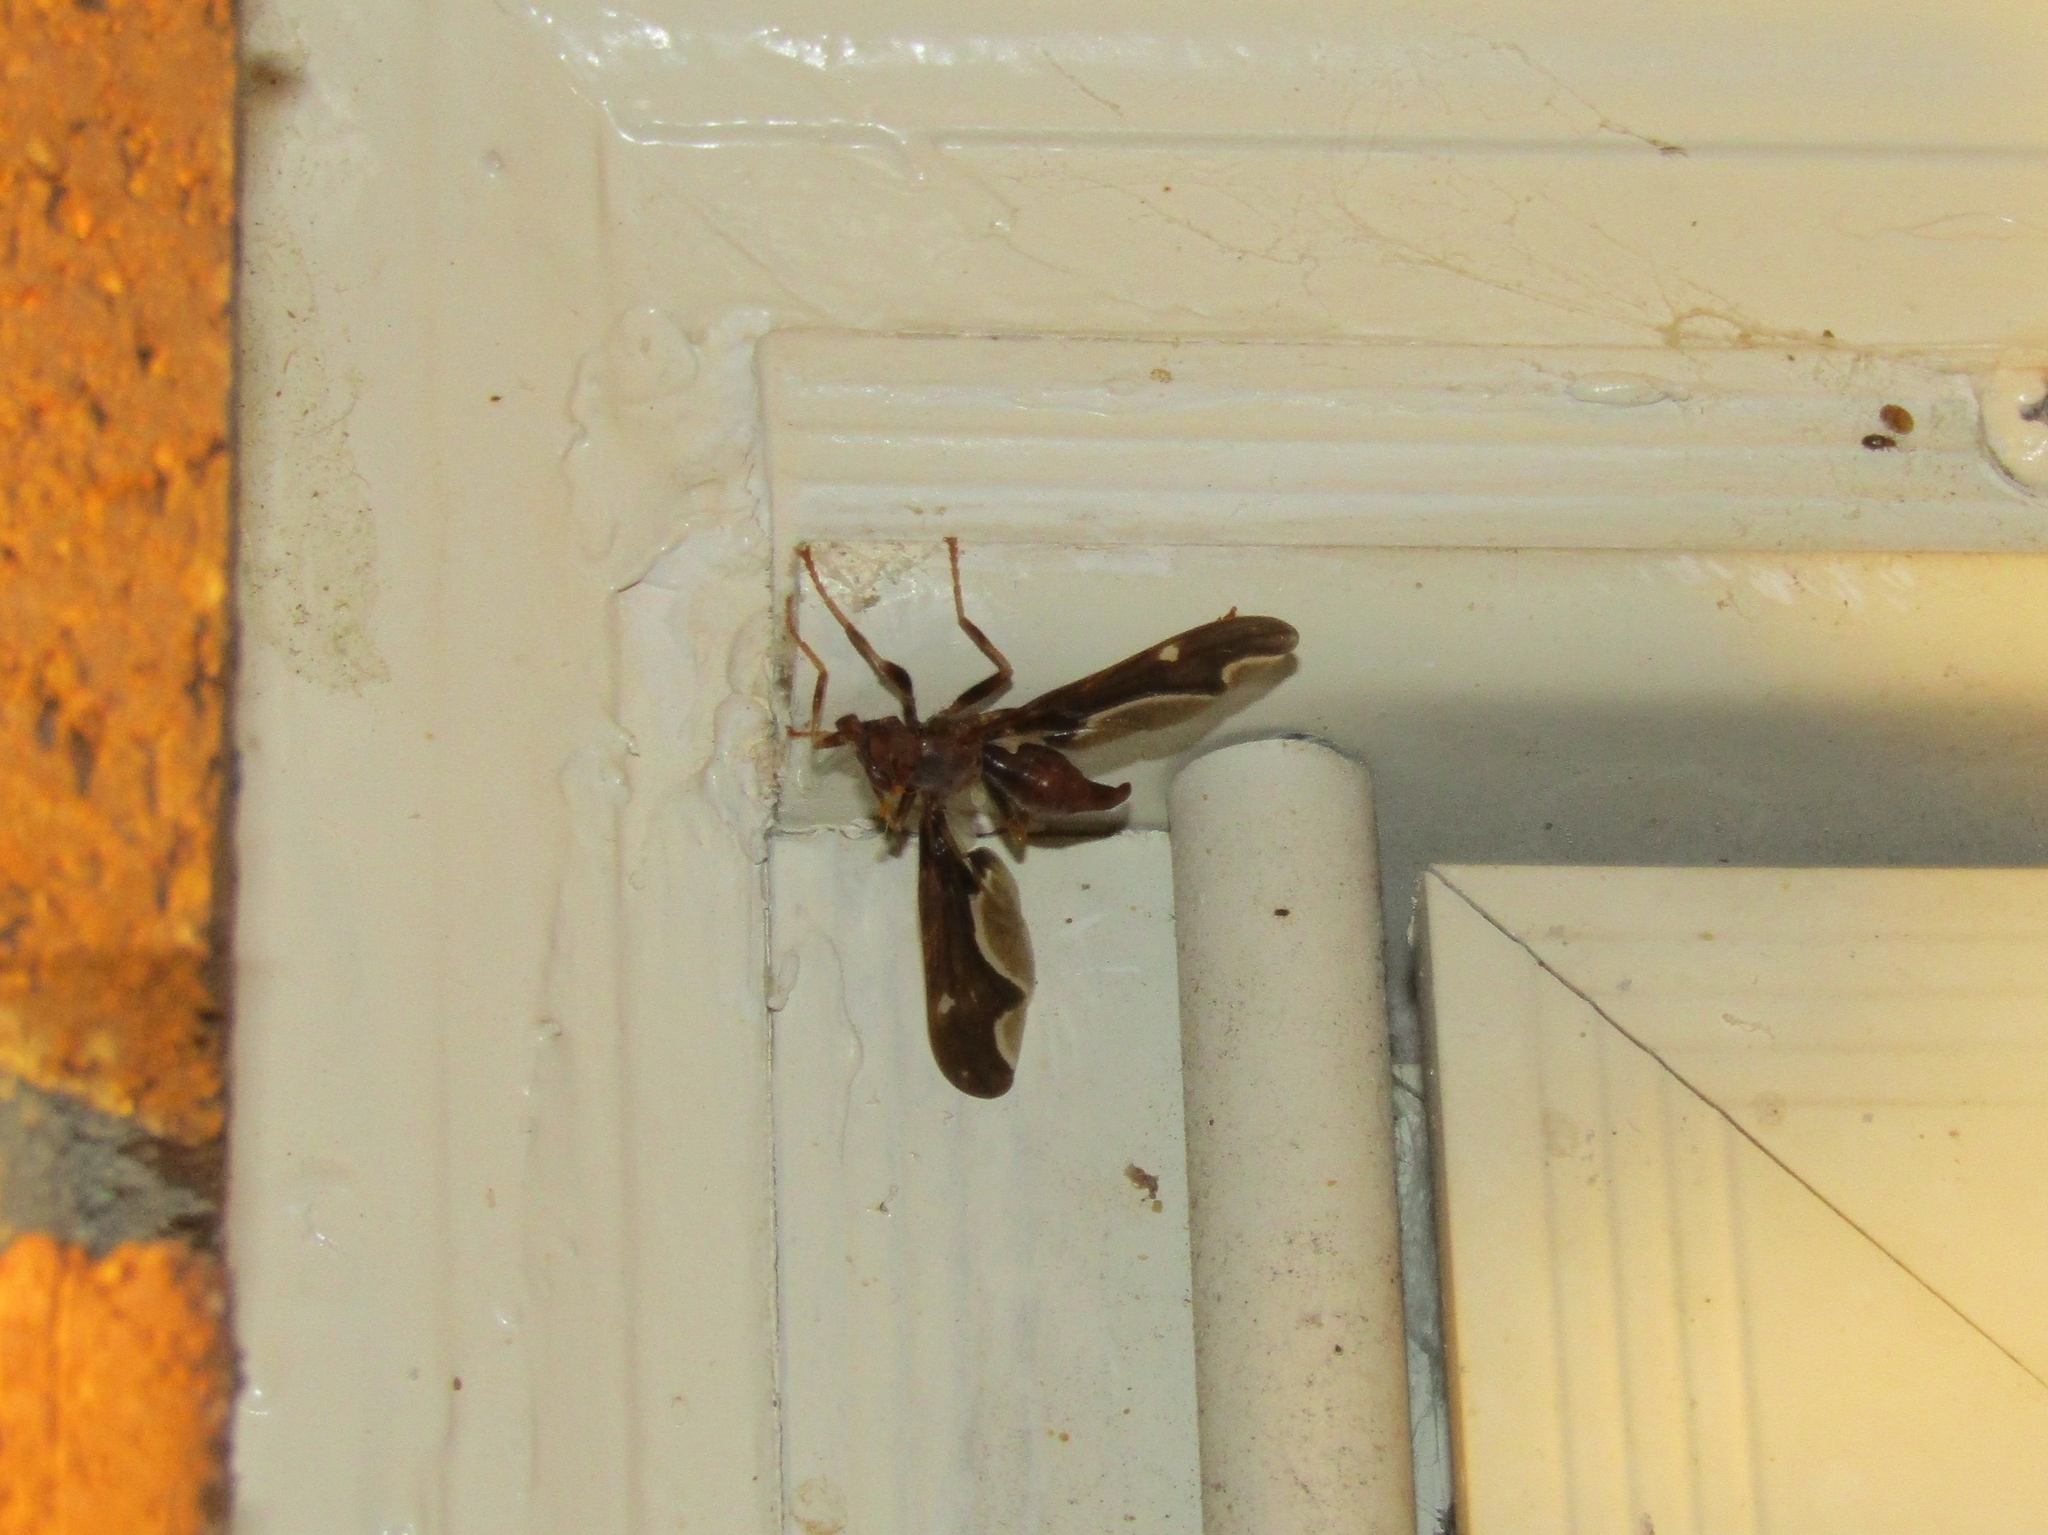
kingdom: Animalia
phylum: Arthropoda
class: Insecta
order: Diptera
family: Pyrgotidae
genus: Pyrgota
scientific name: Pyrgota undata
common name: Waved light fly
